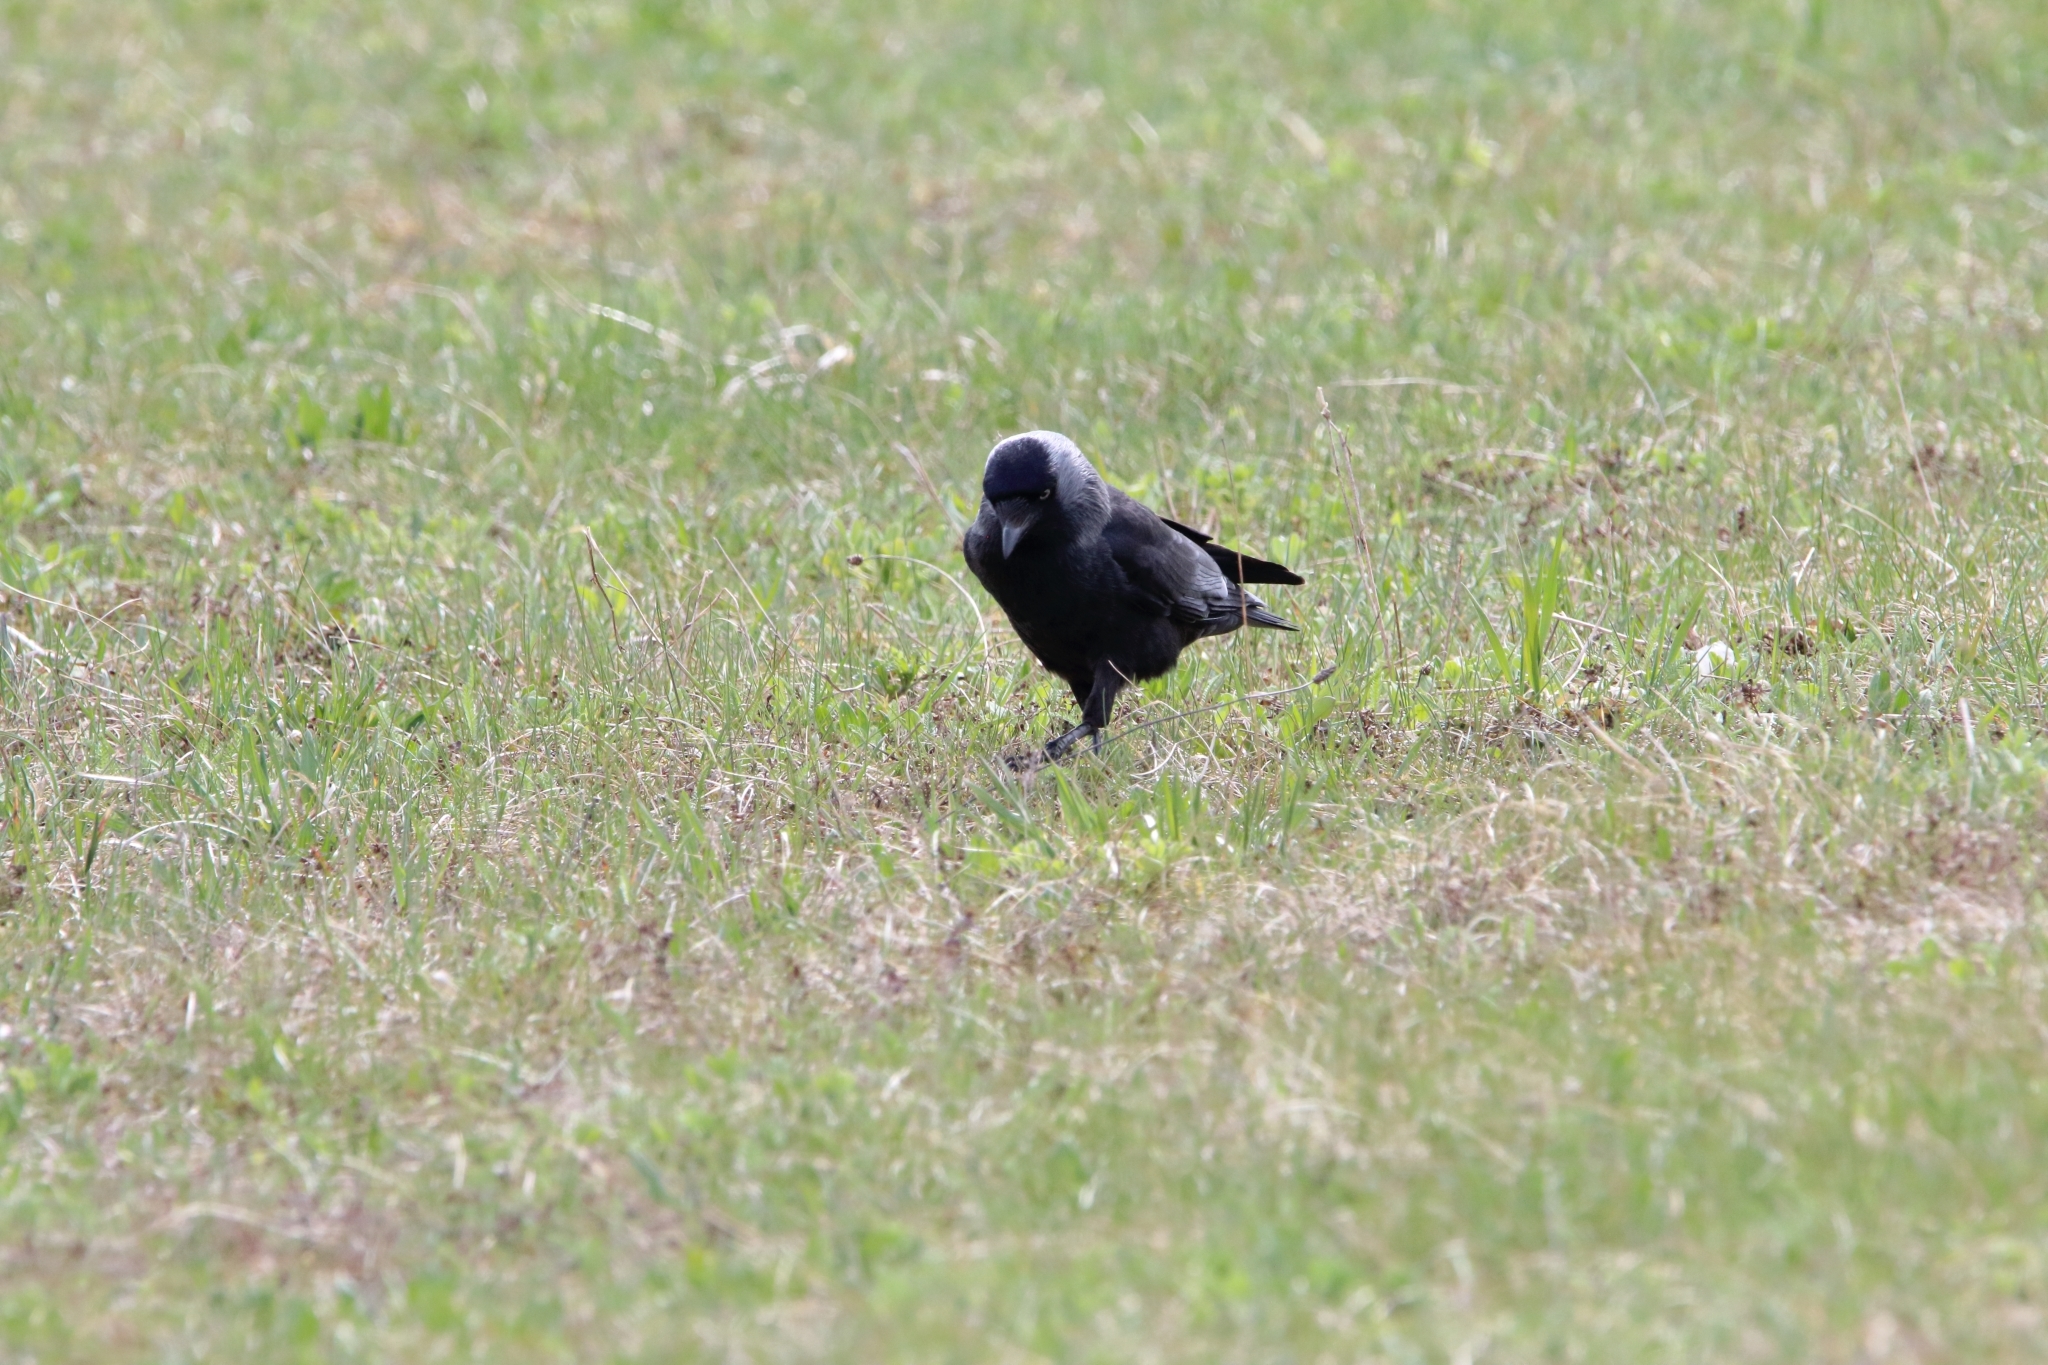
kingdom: Animalia
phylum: Chordata
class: Aves
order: Passeriformes
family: Corvidae
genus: Coloeus
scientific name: Coloeus monedula
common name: Western jackdaw
